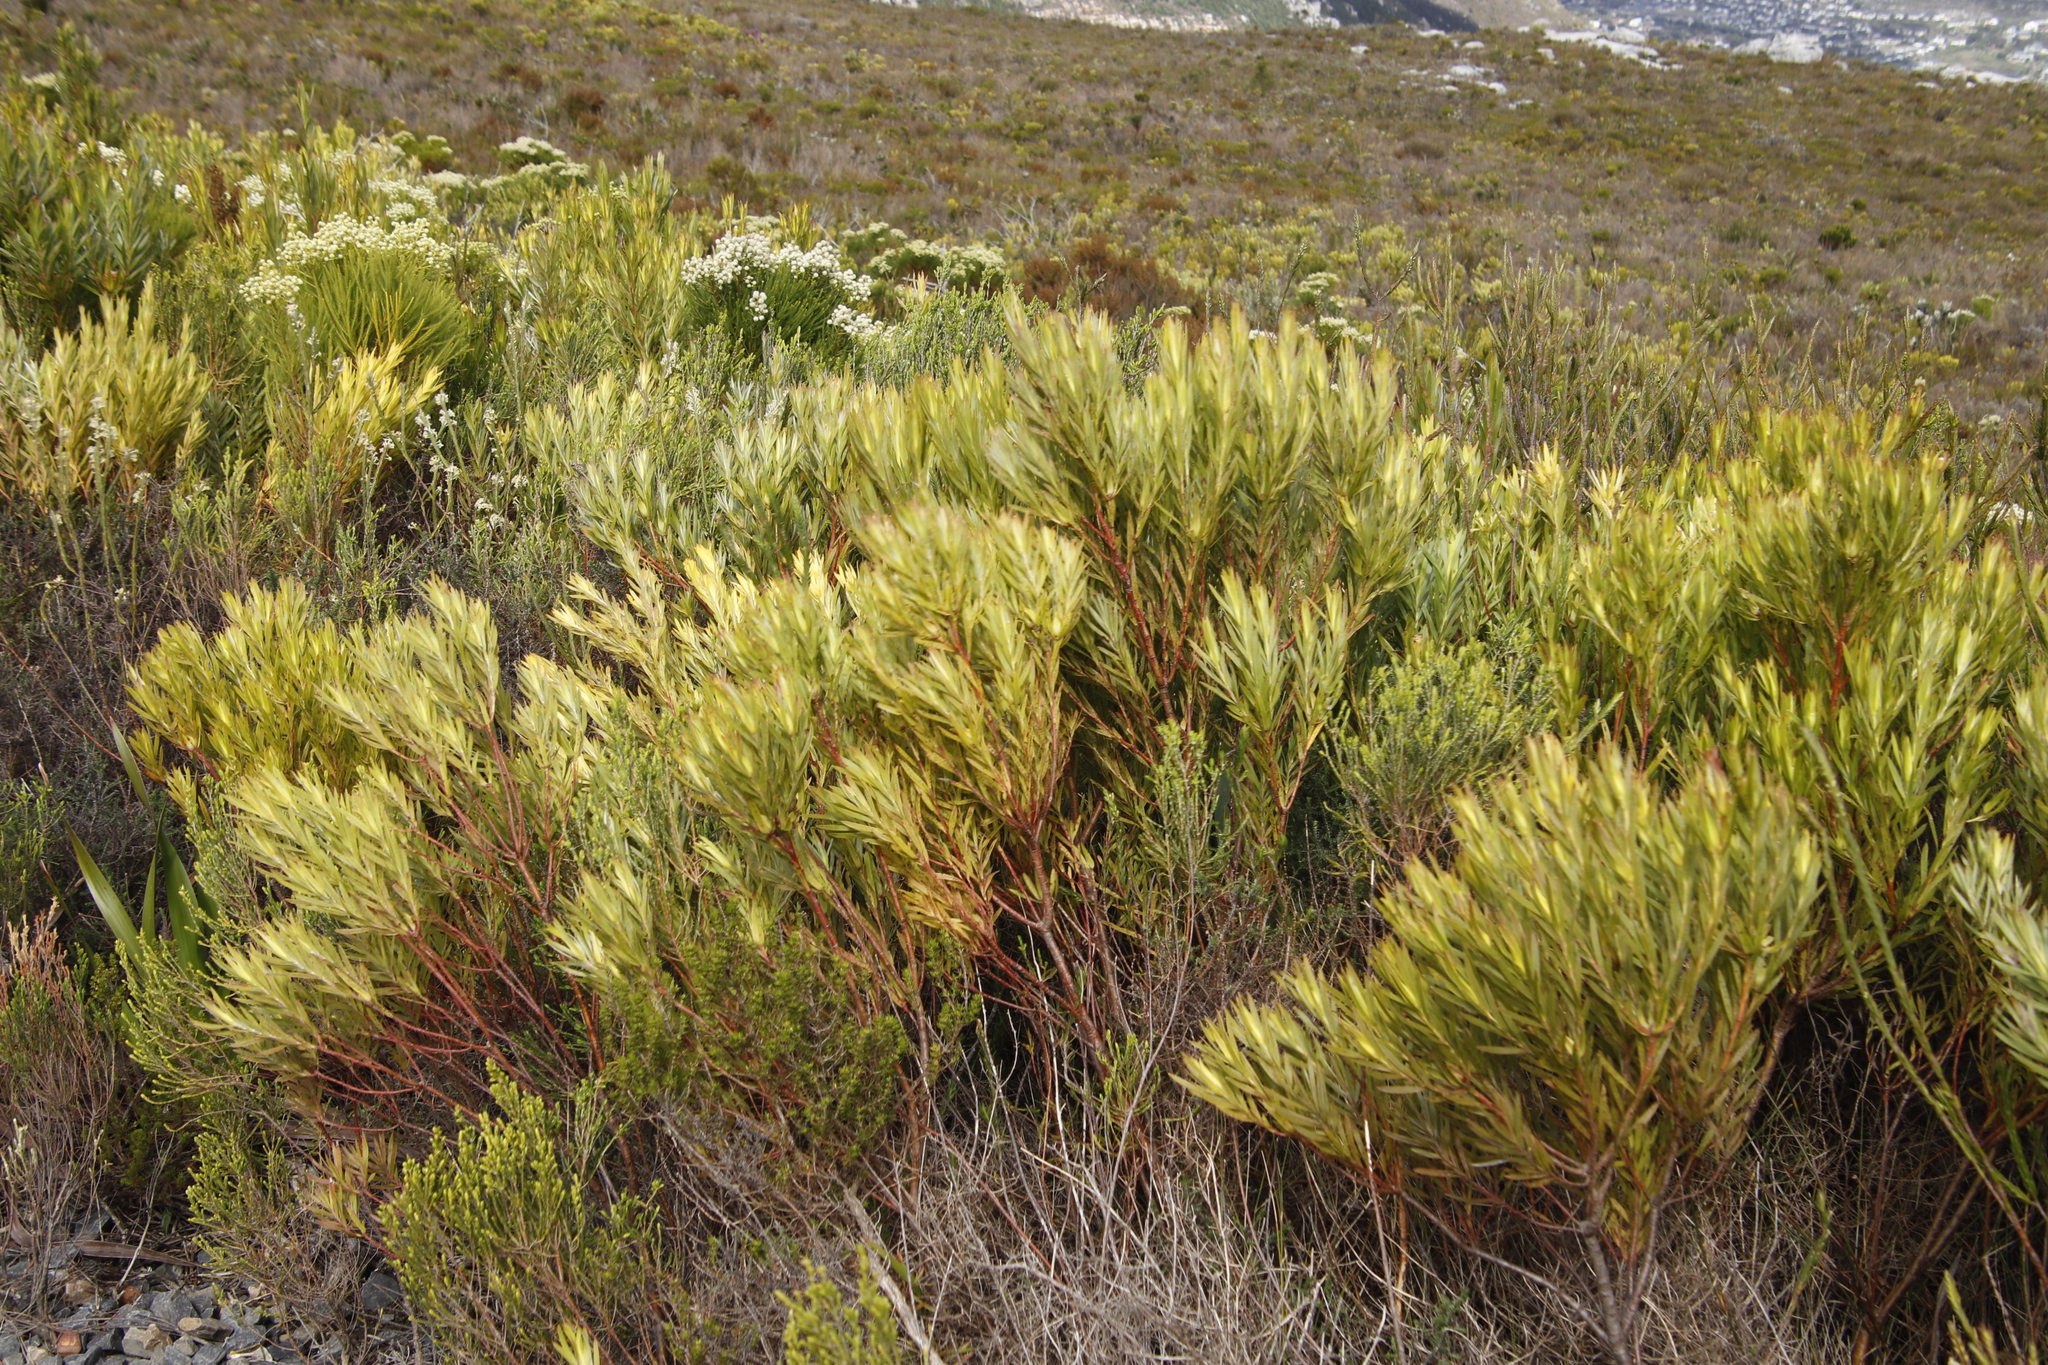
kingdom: Plantae
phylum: Tracheophyta
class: Magnoliopsida
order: Proteales
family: Proteaceae
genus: Leucadendron
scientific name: Leucadendron xanthoconus
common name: Sickle-leaf conebush
